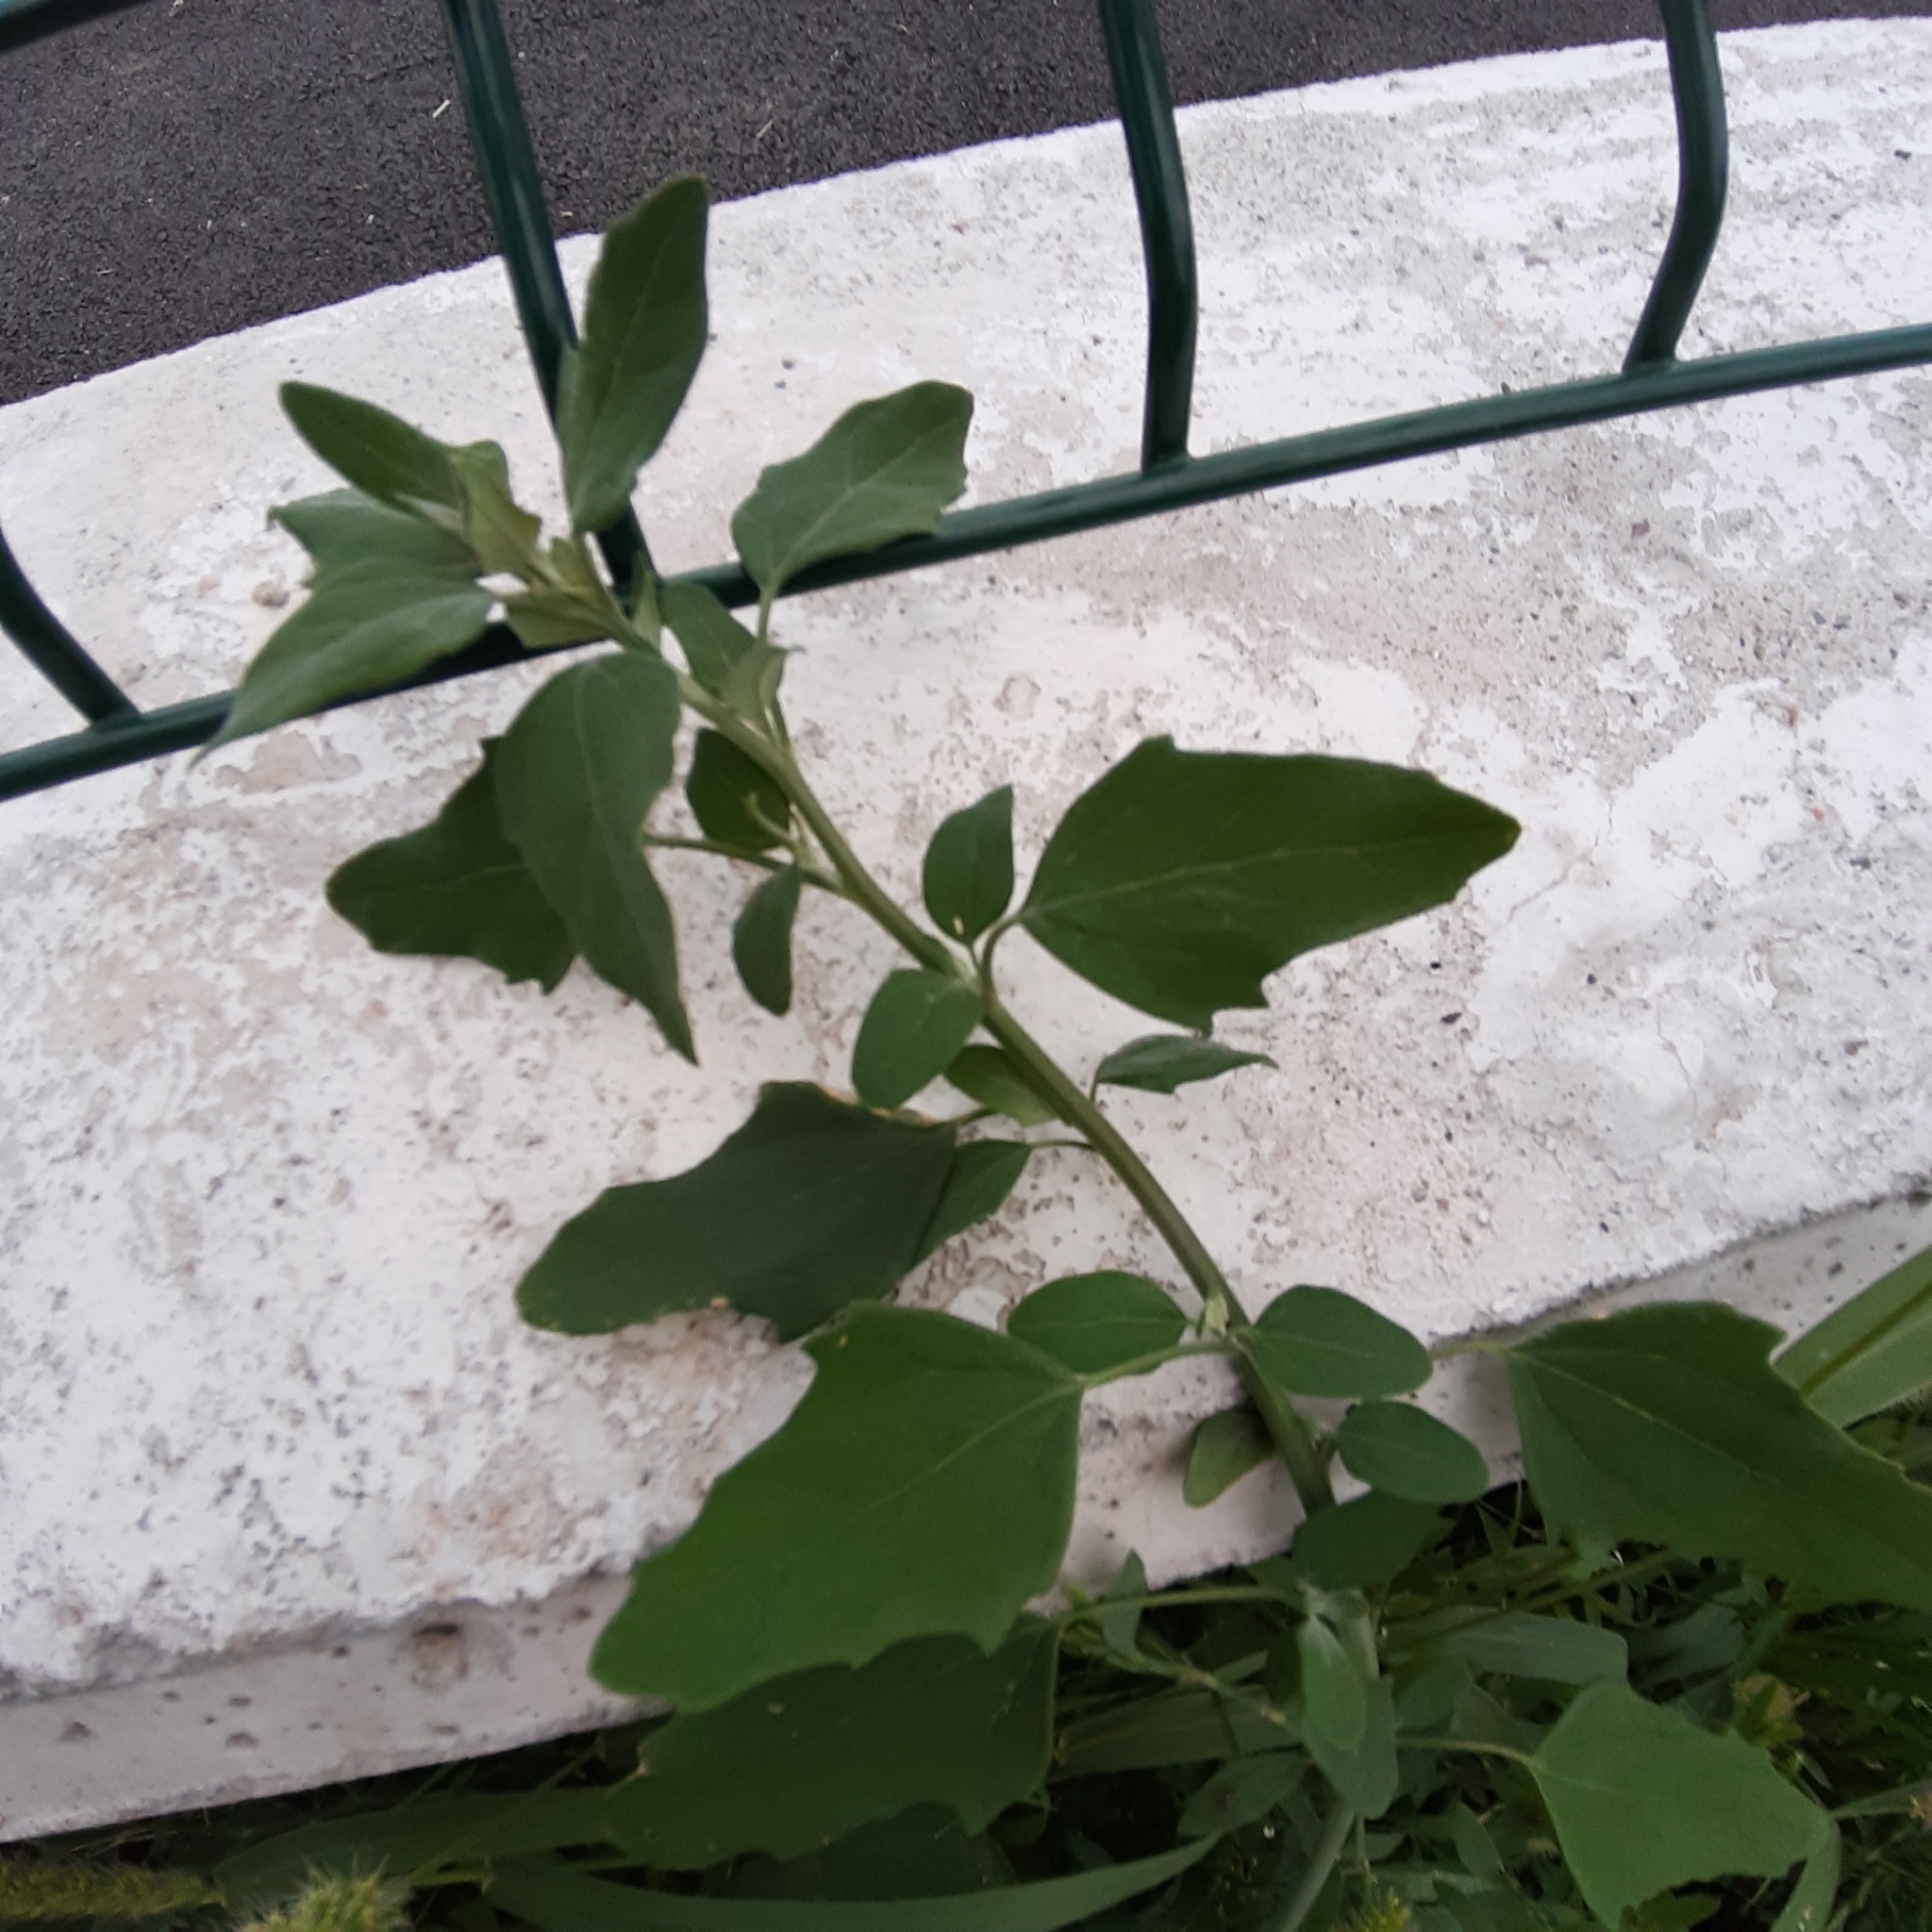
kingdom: Plantae
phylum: Tracheophyta
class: Magnoliopsida
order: Caryophyllales
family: Amaranthaceae
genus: Chenopodium
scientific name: Chenopodium album
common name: Fat-hen
